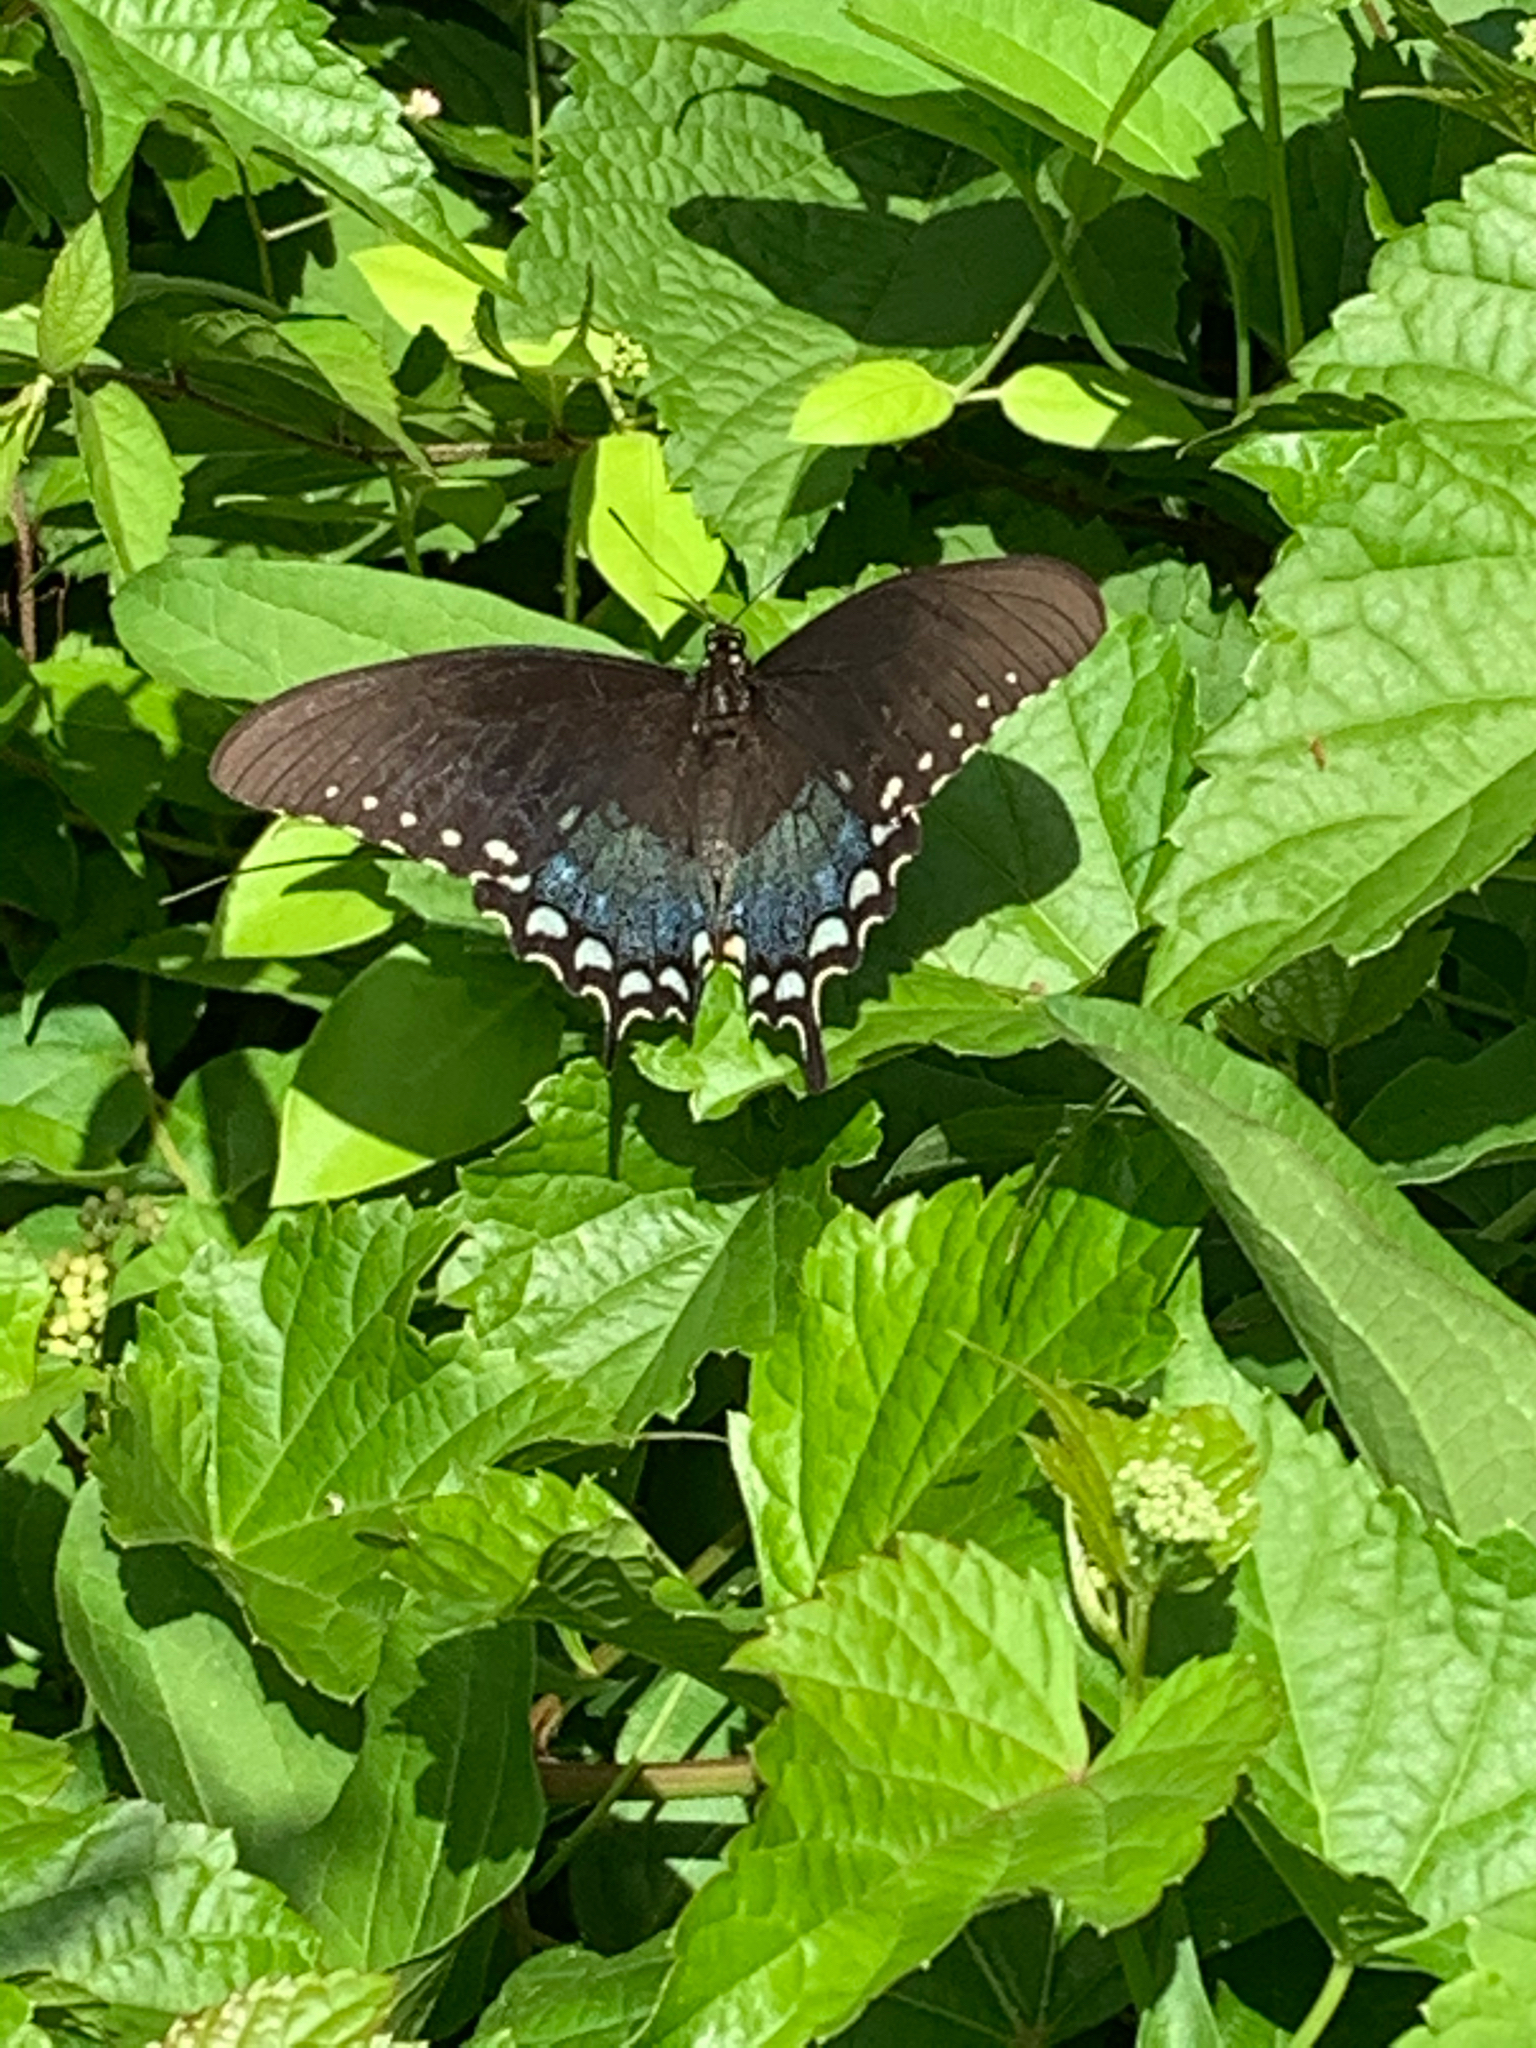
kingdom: Animalia
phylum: Arthropoda
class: Insecta
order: Lepidoptera
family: Papilionidae
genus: Papilio
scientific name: Papilio troilus
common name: Spicebush swallowtail
